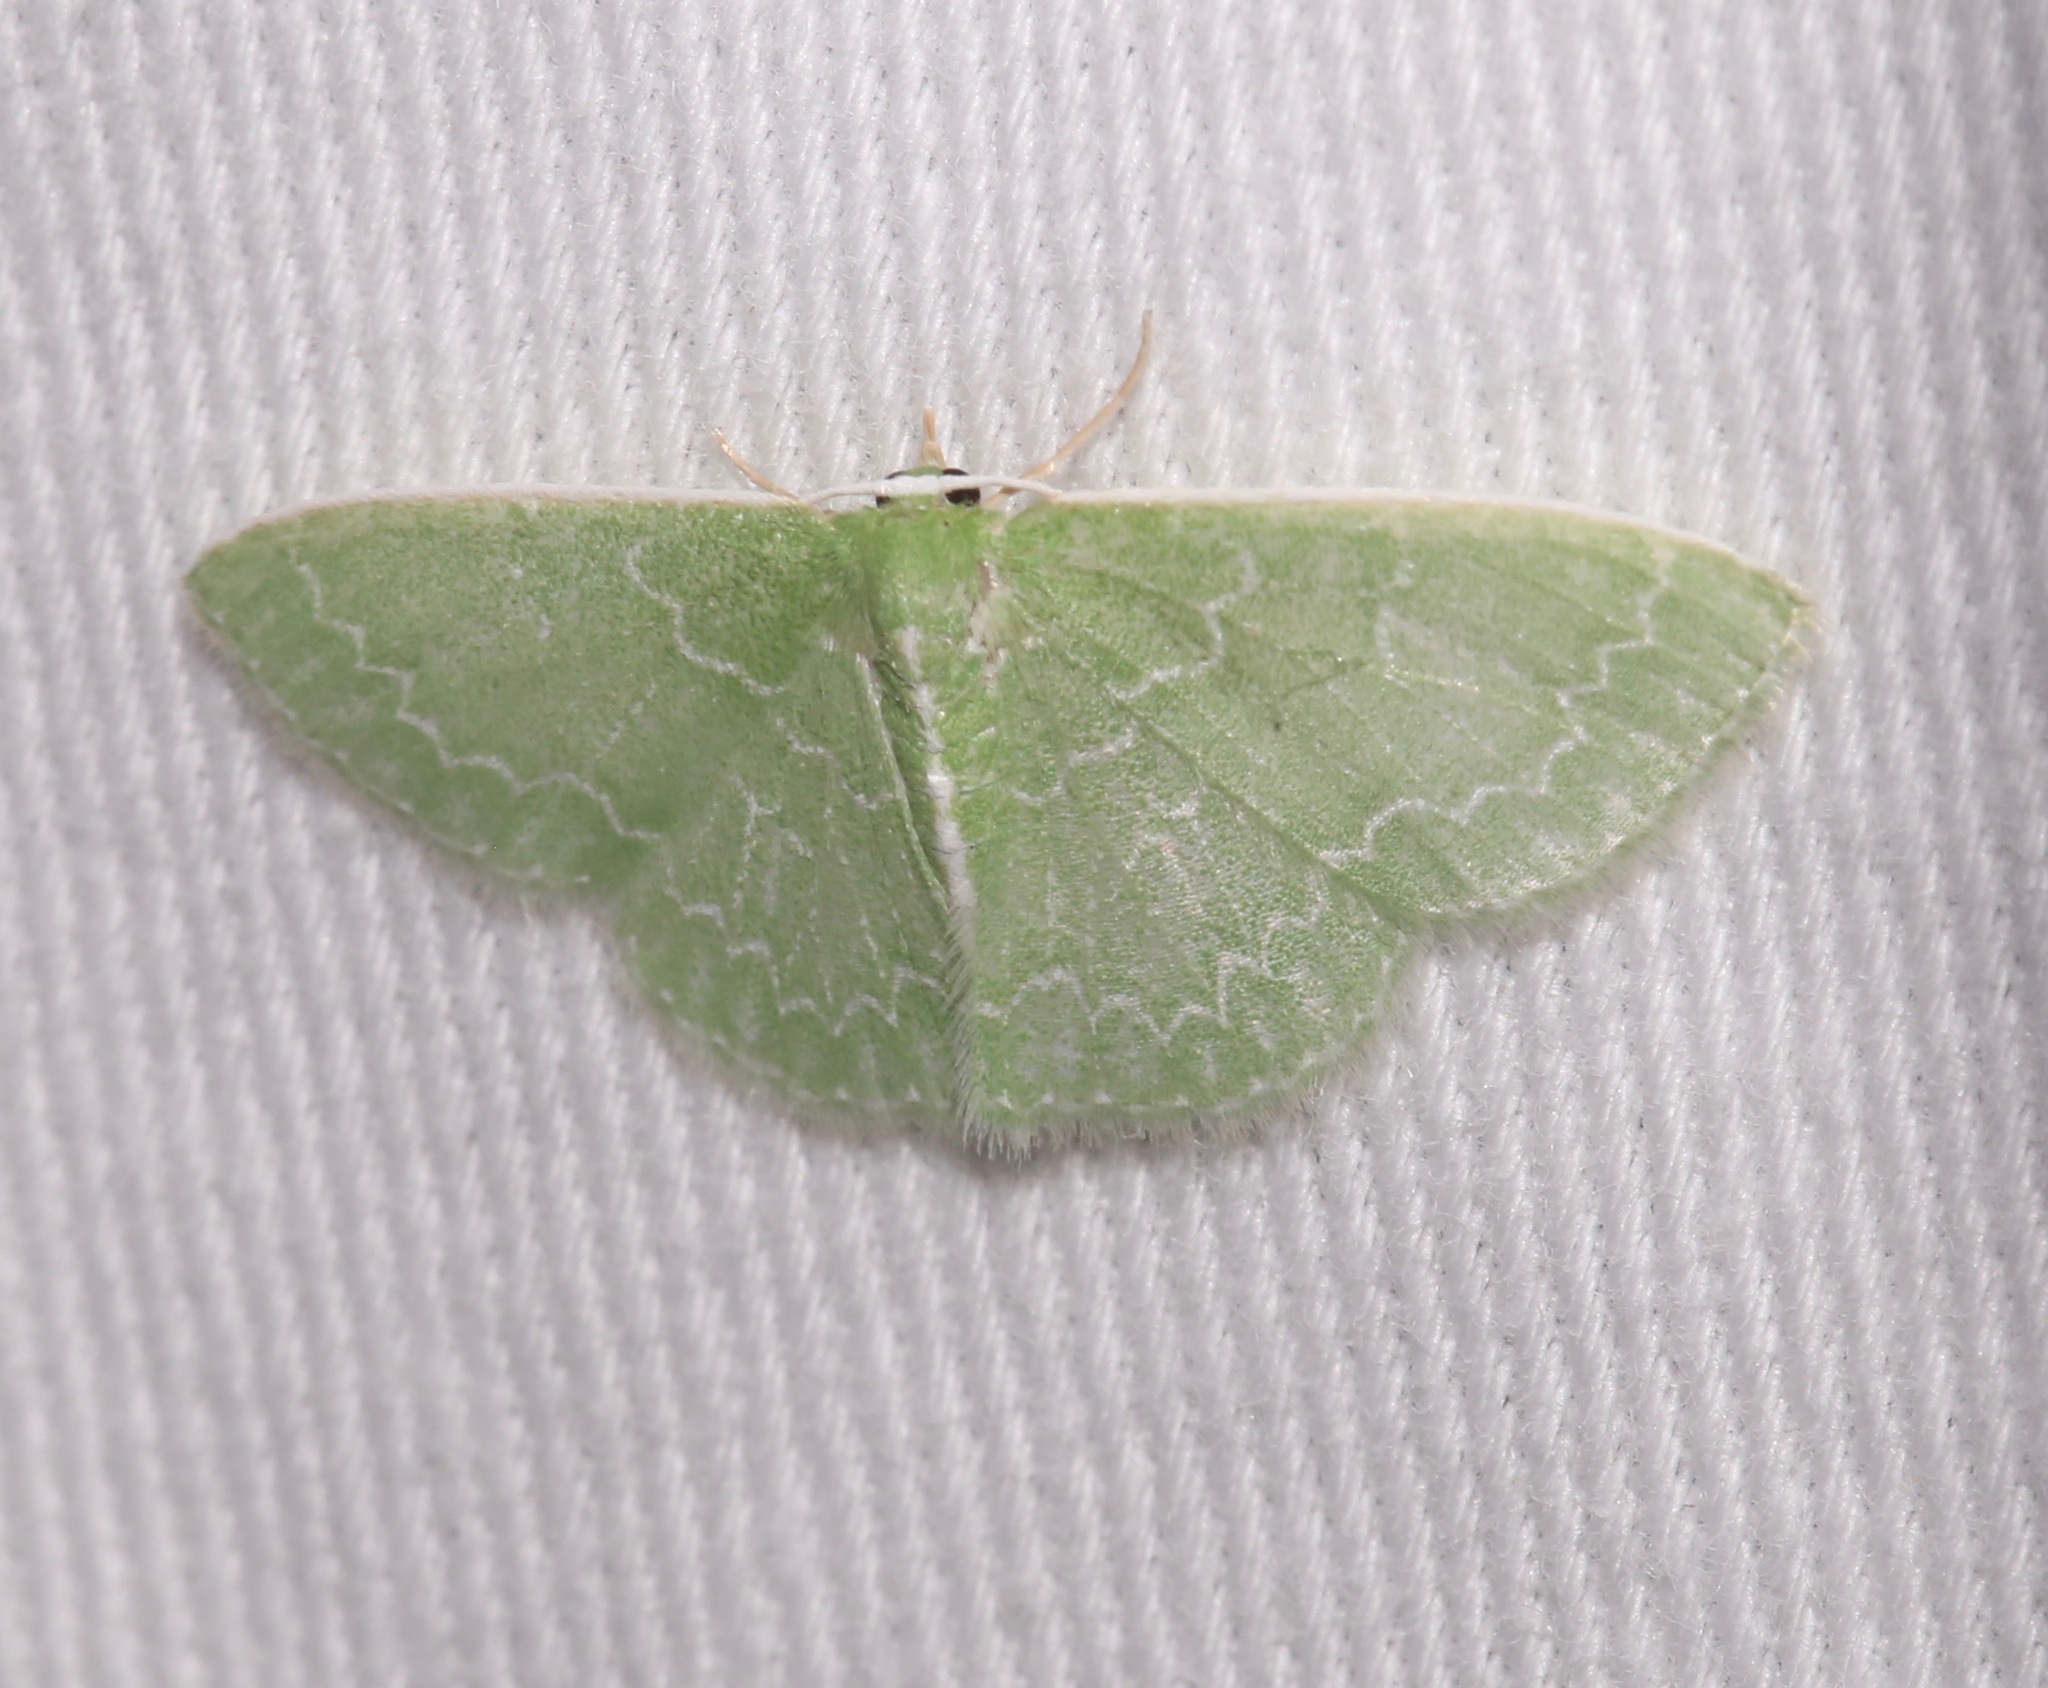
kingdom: Animalia
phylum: Arthropoda
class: Insecta
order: Lepidoptera
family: Geometridae
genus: Synchlora
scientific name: Synchlora frondaria
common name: Southern emerald
